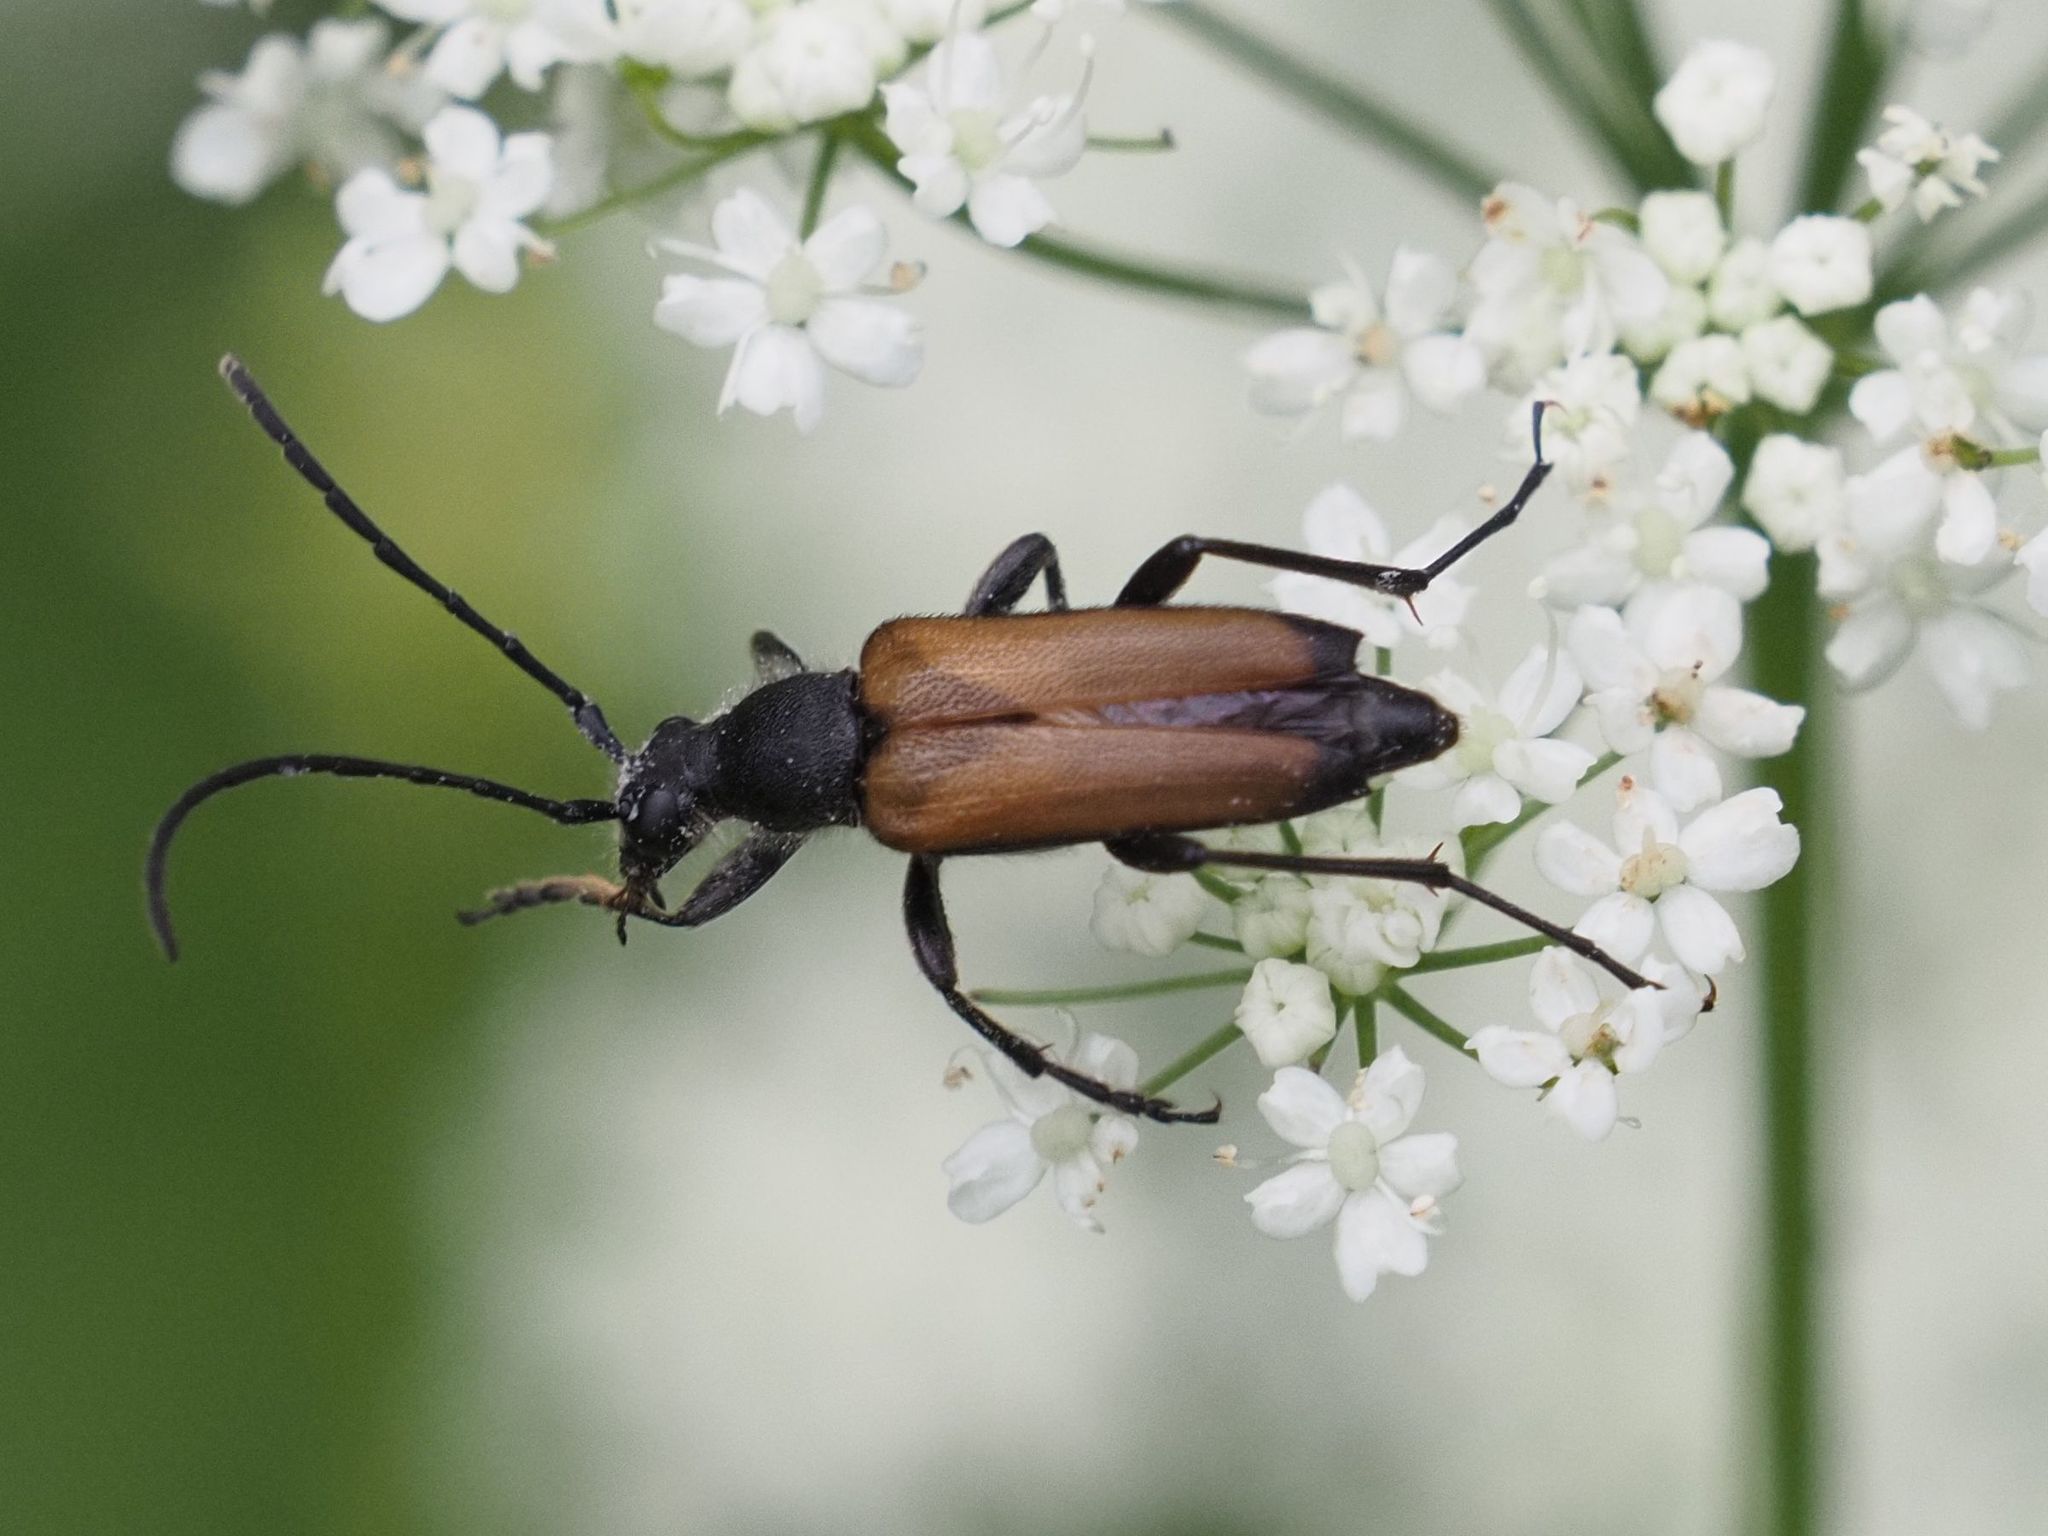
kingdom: Animalia
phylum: Arthropoda
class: Insecta
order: Coleoptera
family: Cerambycidae
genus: Anastrangalia
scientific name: Anastrangalia sanguinolenta
